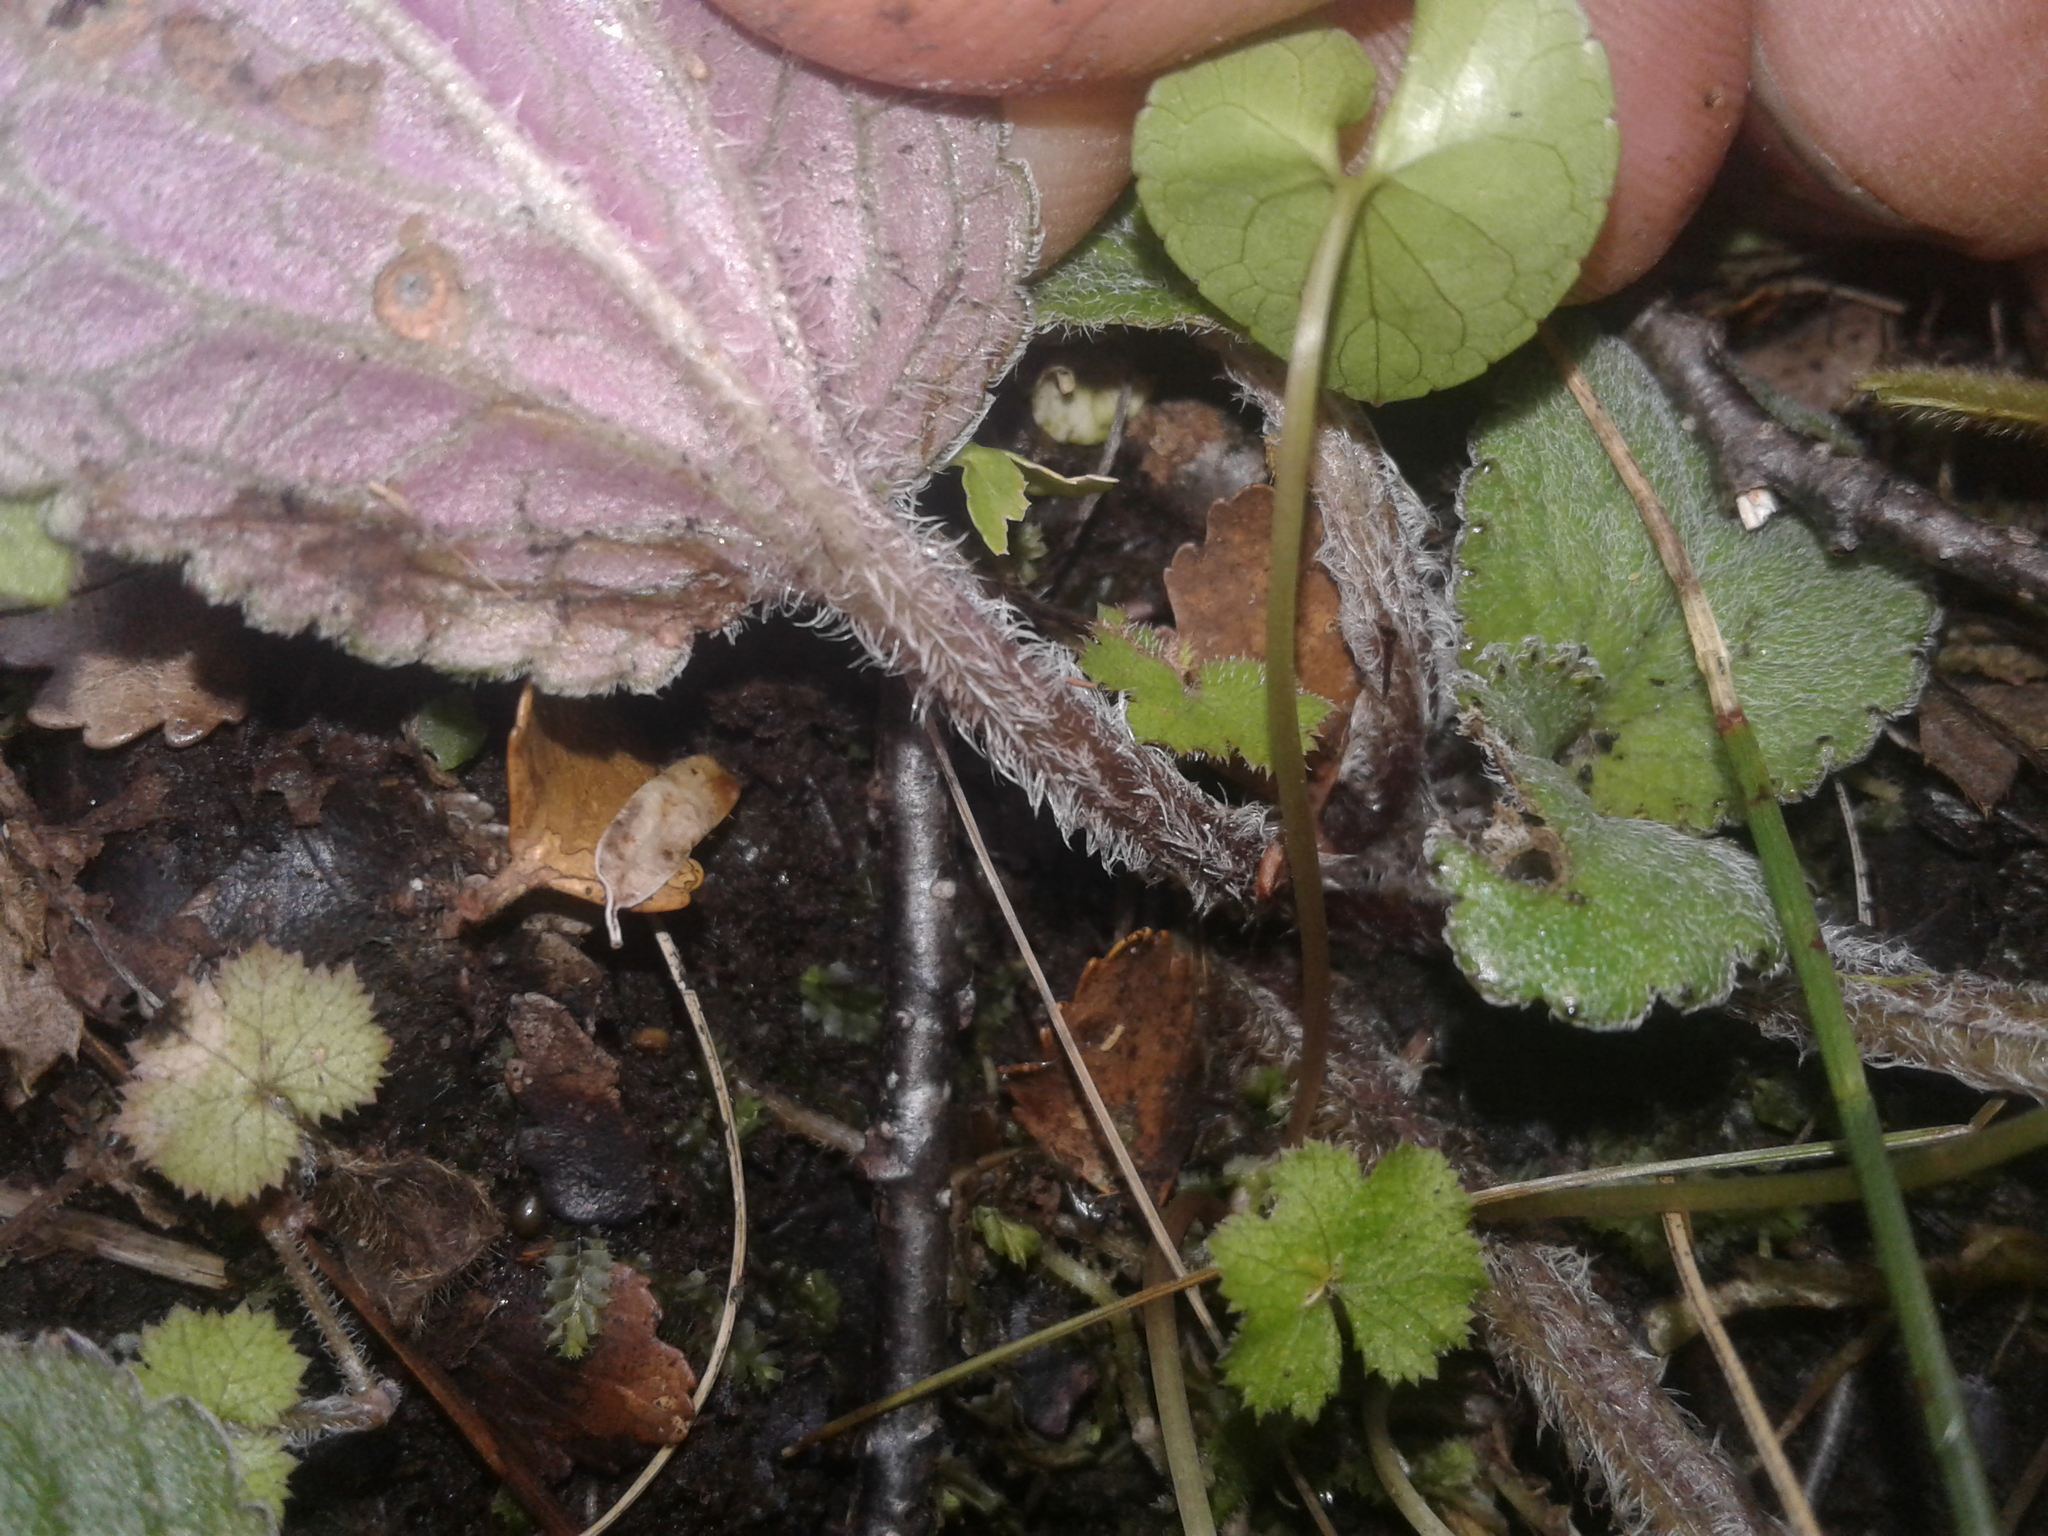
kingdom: Plantae
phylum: Tracheophyta
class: Magnoliopsida
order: Lamiales
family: Plantaginaceae
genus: Ourisia
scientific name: Ourisia macrophylla
